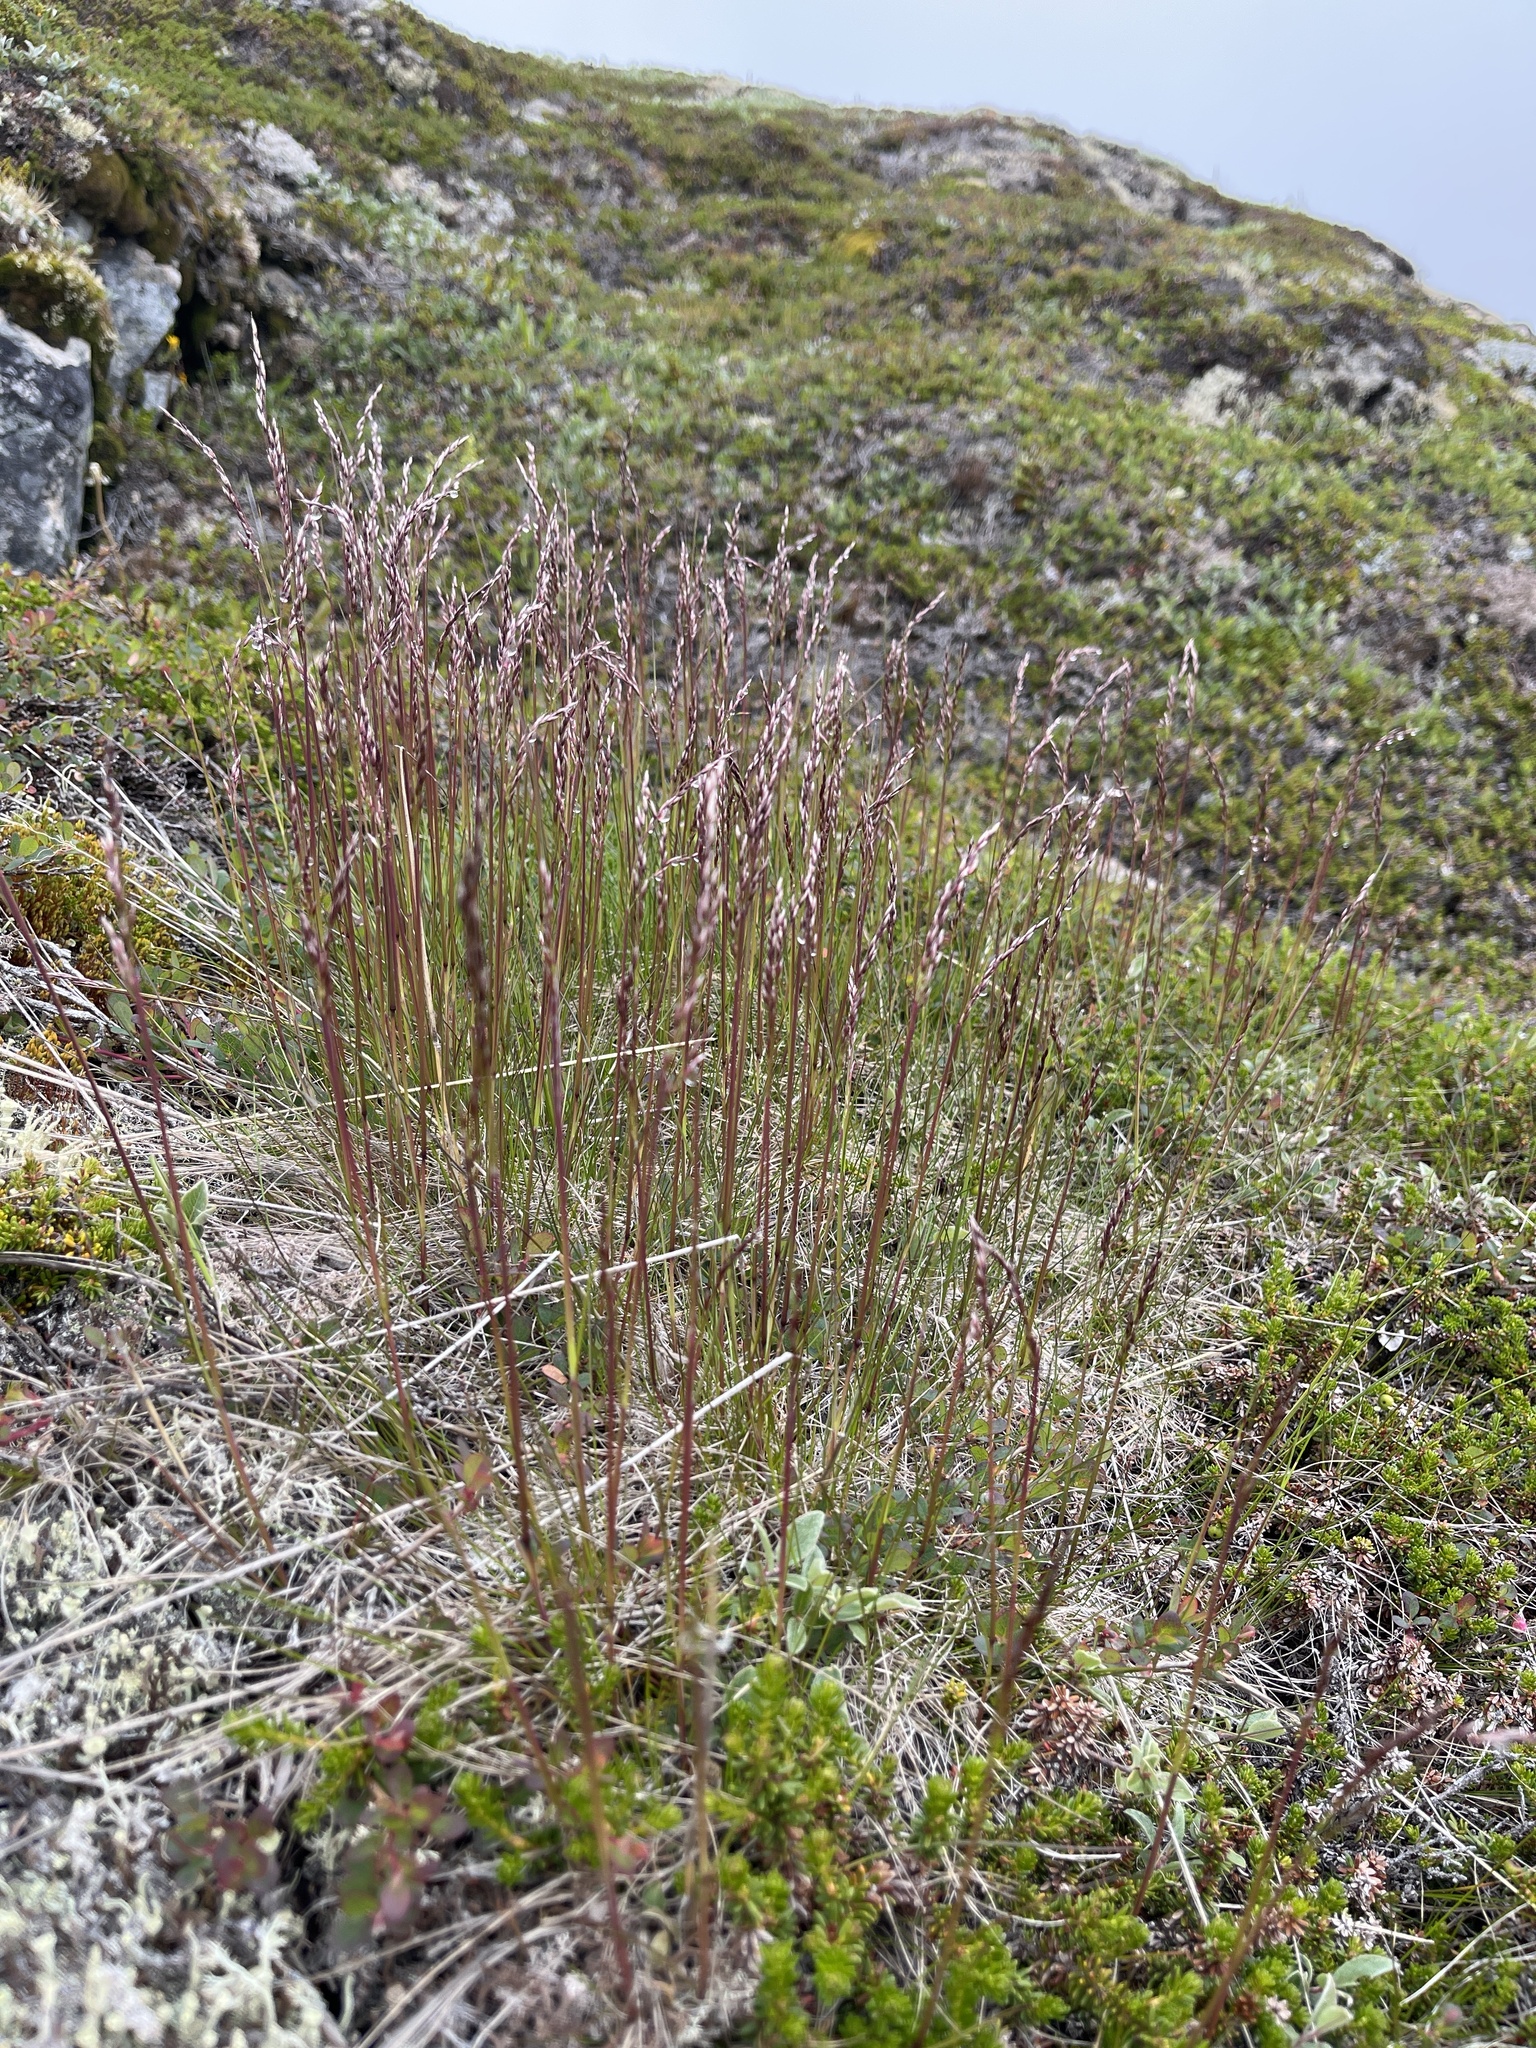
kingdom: Plantae
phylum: Tracheophyta
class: Liliopsida
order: Poales
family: Poaceae
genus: Avenella
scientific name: Avenella flexuosa
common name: Wavy hairgrass
